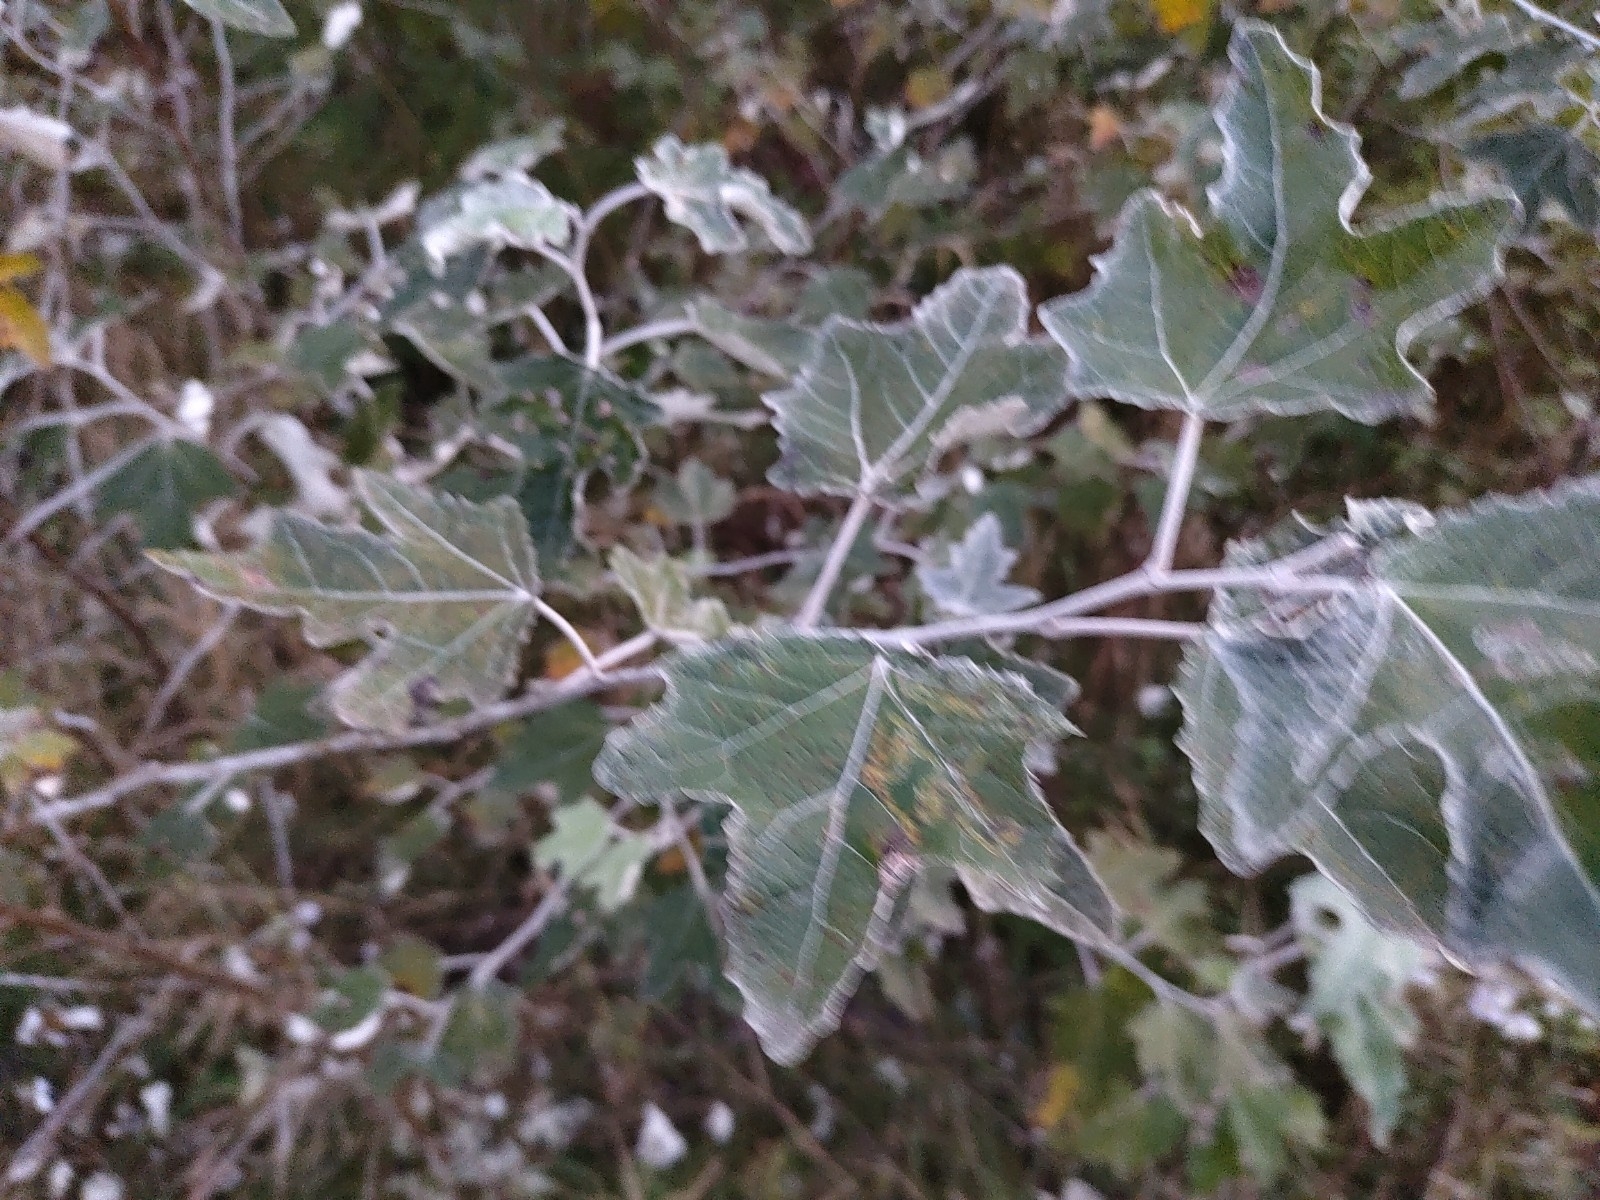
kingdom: Plantae
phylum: Tracheophyta
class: Magnoliopsida
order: Malpighiales
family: Salicaceae
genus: Populus
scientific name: Populus alba
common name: White poplar
